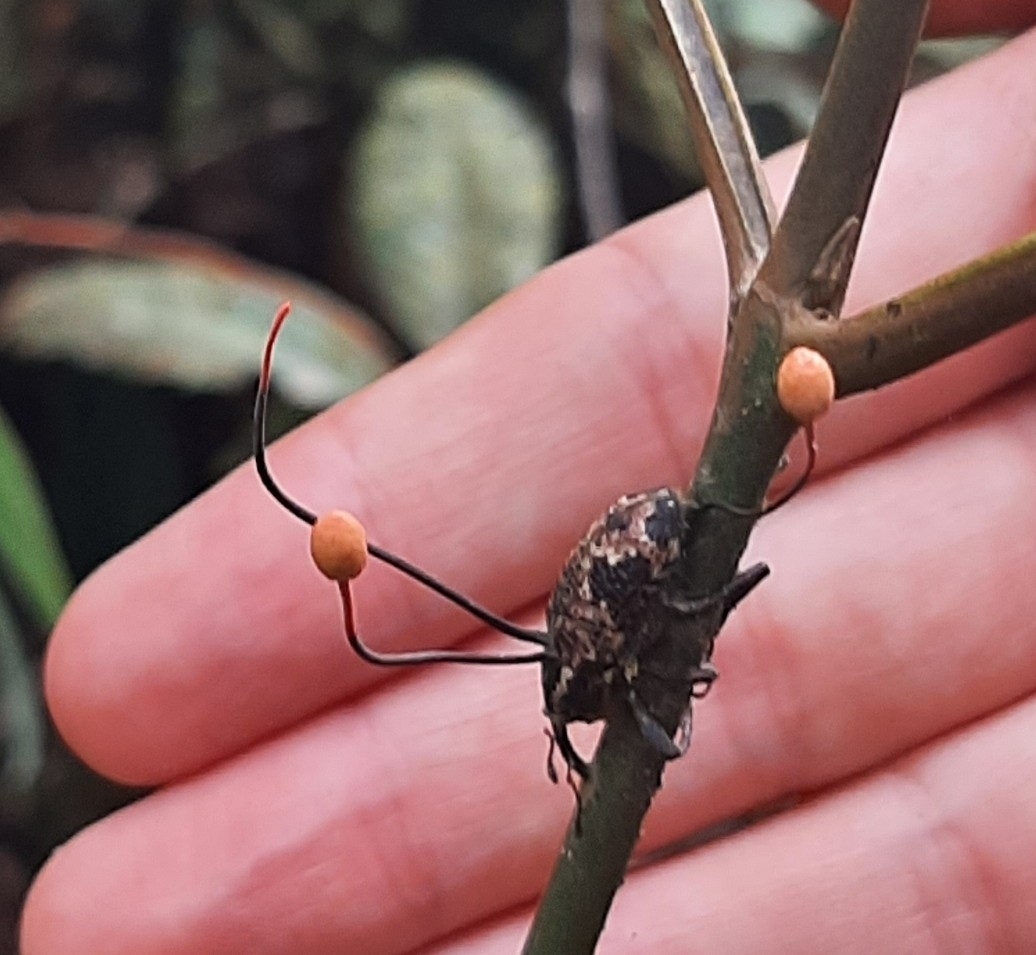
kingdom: Fungi
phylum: Ascomycota
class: Sordariomycetes
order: Hypocreales
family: Ophiocordycipitaceae
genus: Ophiocordyceps
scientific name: Ophiocordyceps curculionum
